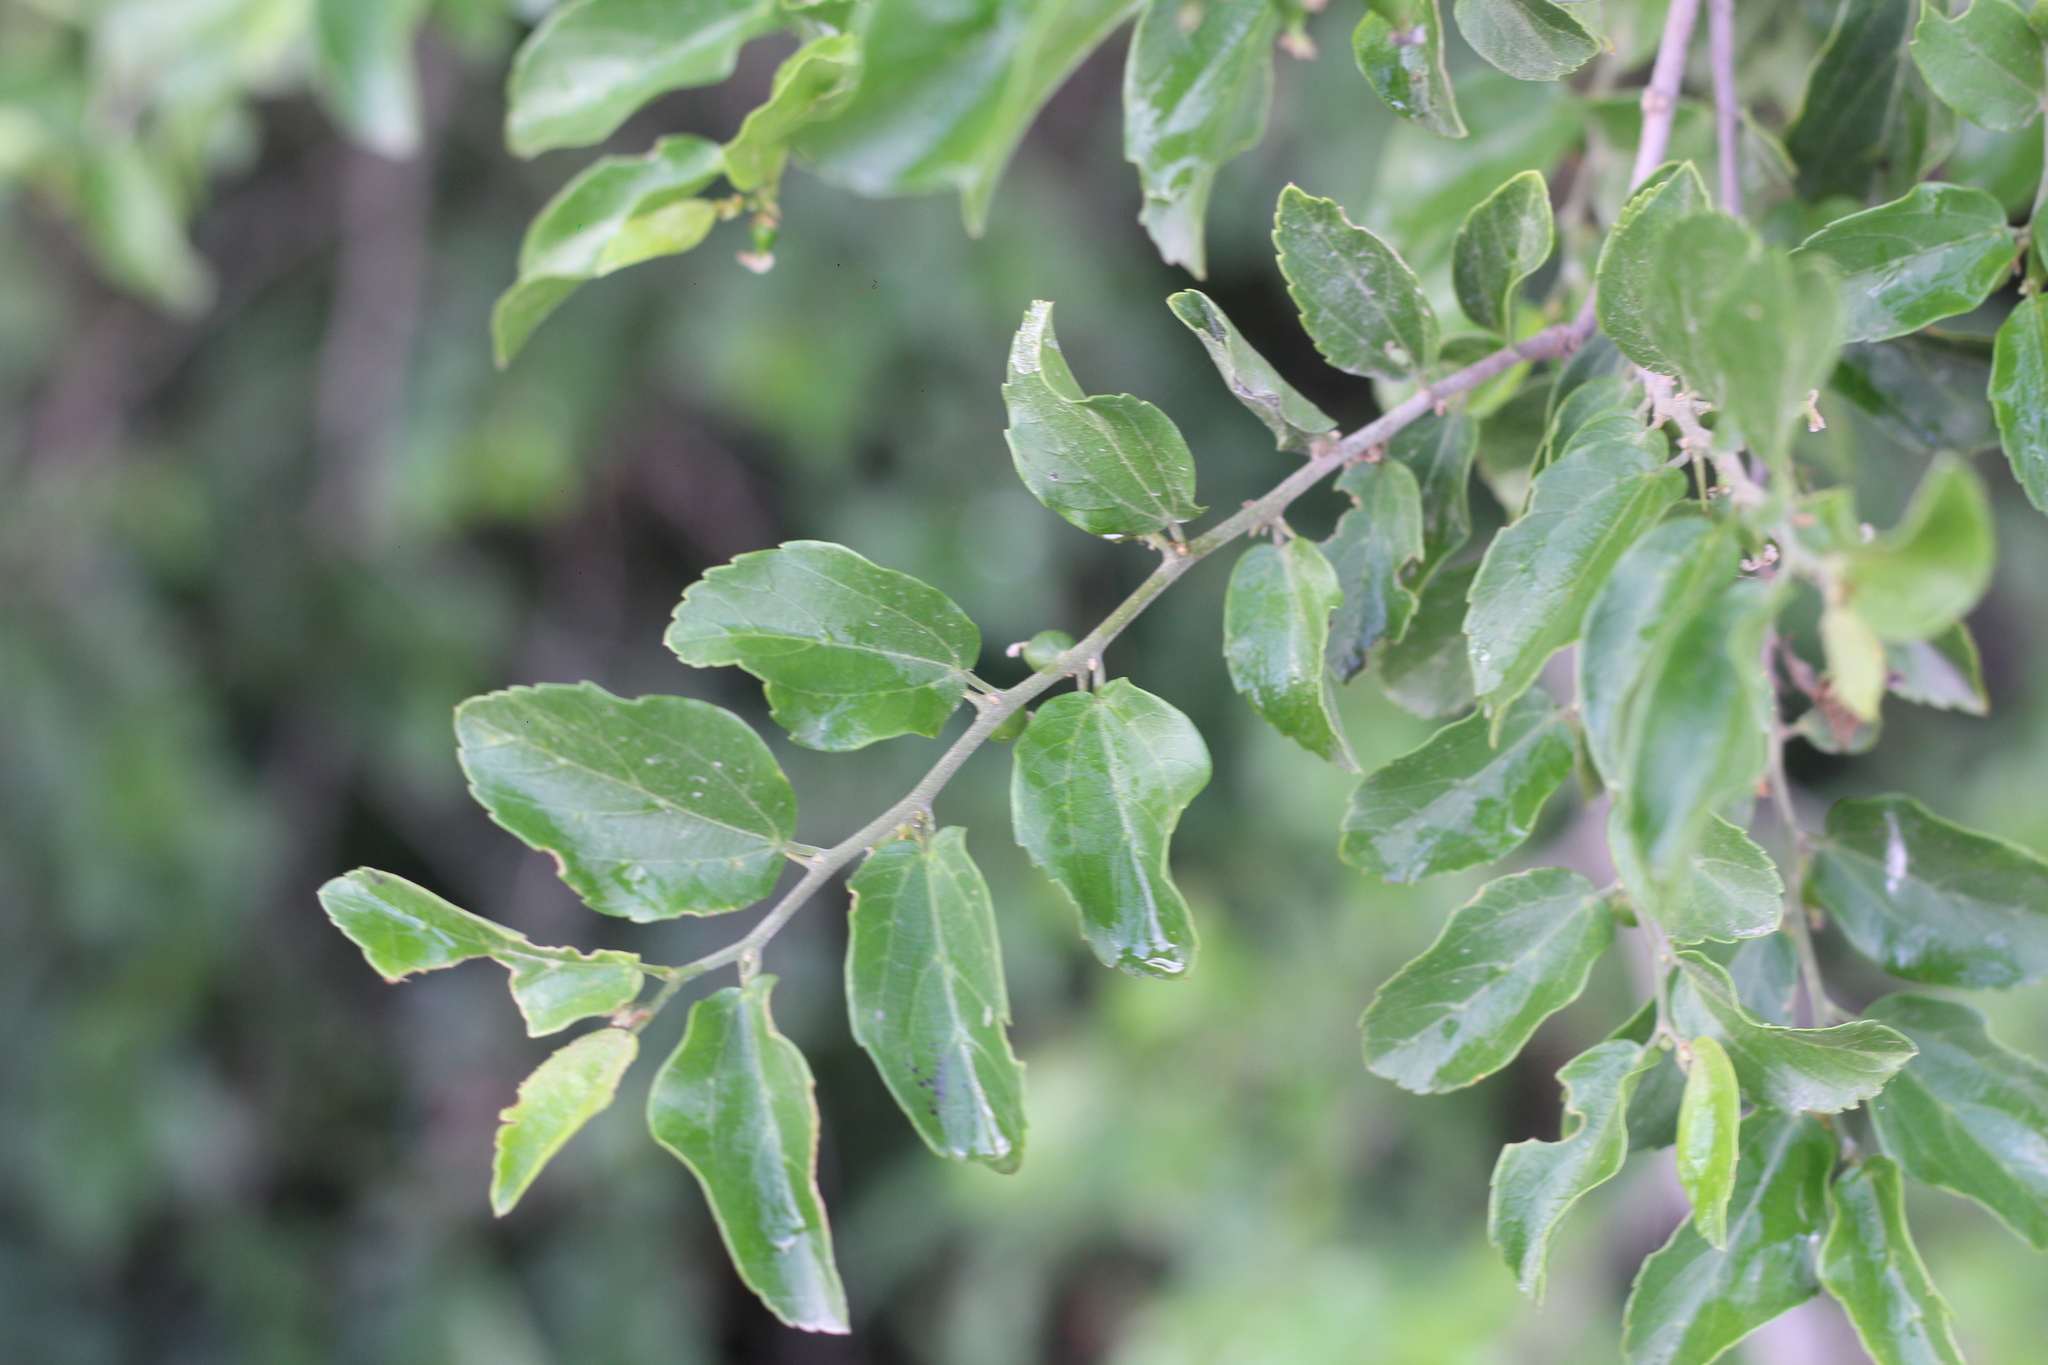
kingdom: Plantae
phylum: Tracheophyta
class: Magnoliopsida
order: Rosales
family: Cannabaceae
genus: Celtis
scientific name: Celtis iguanaea
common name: Iguana hackberry
